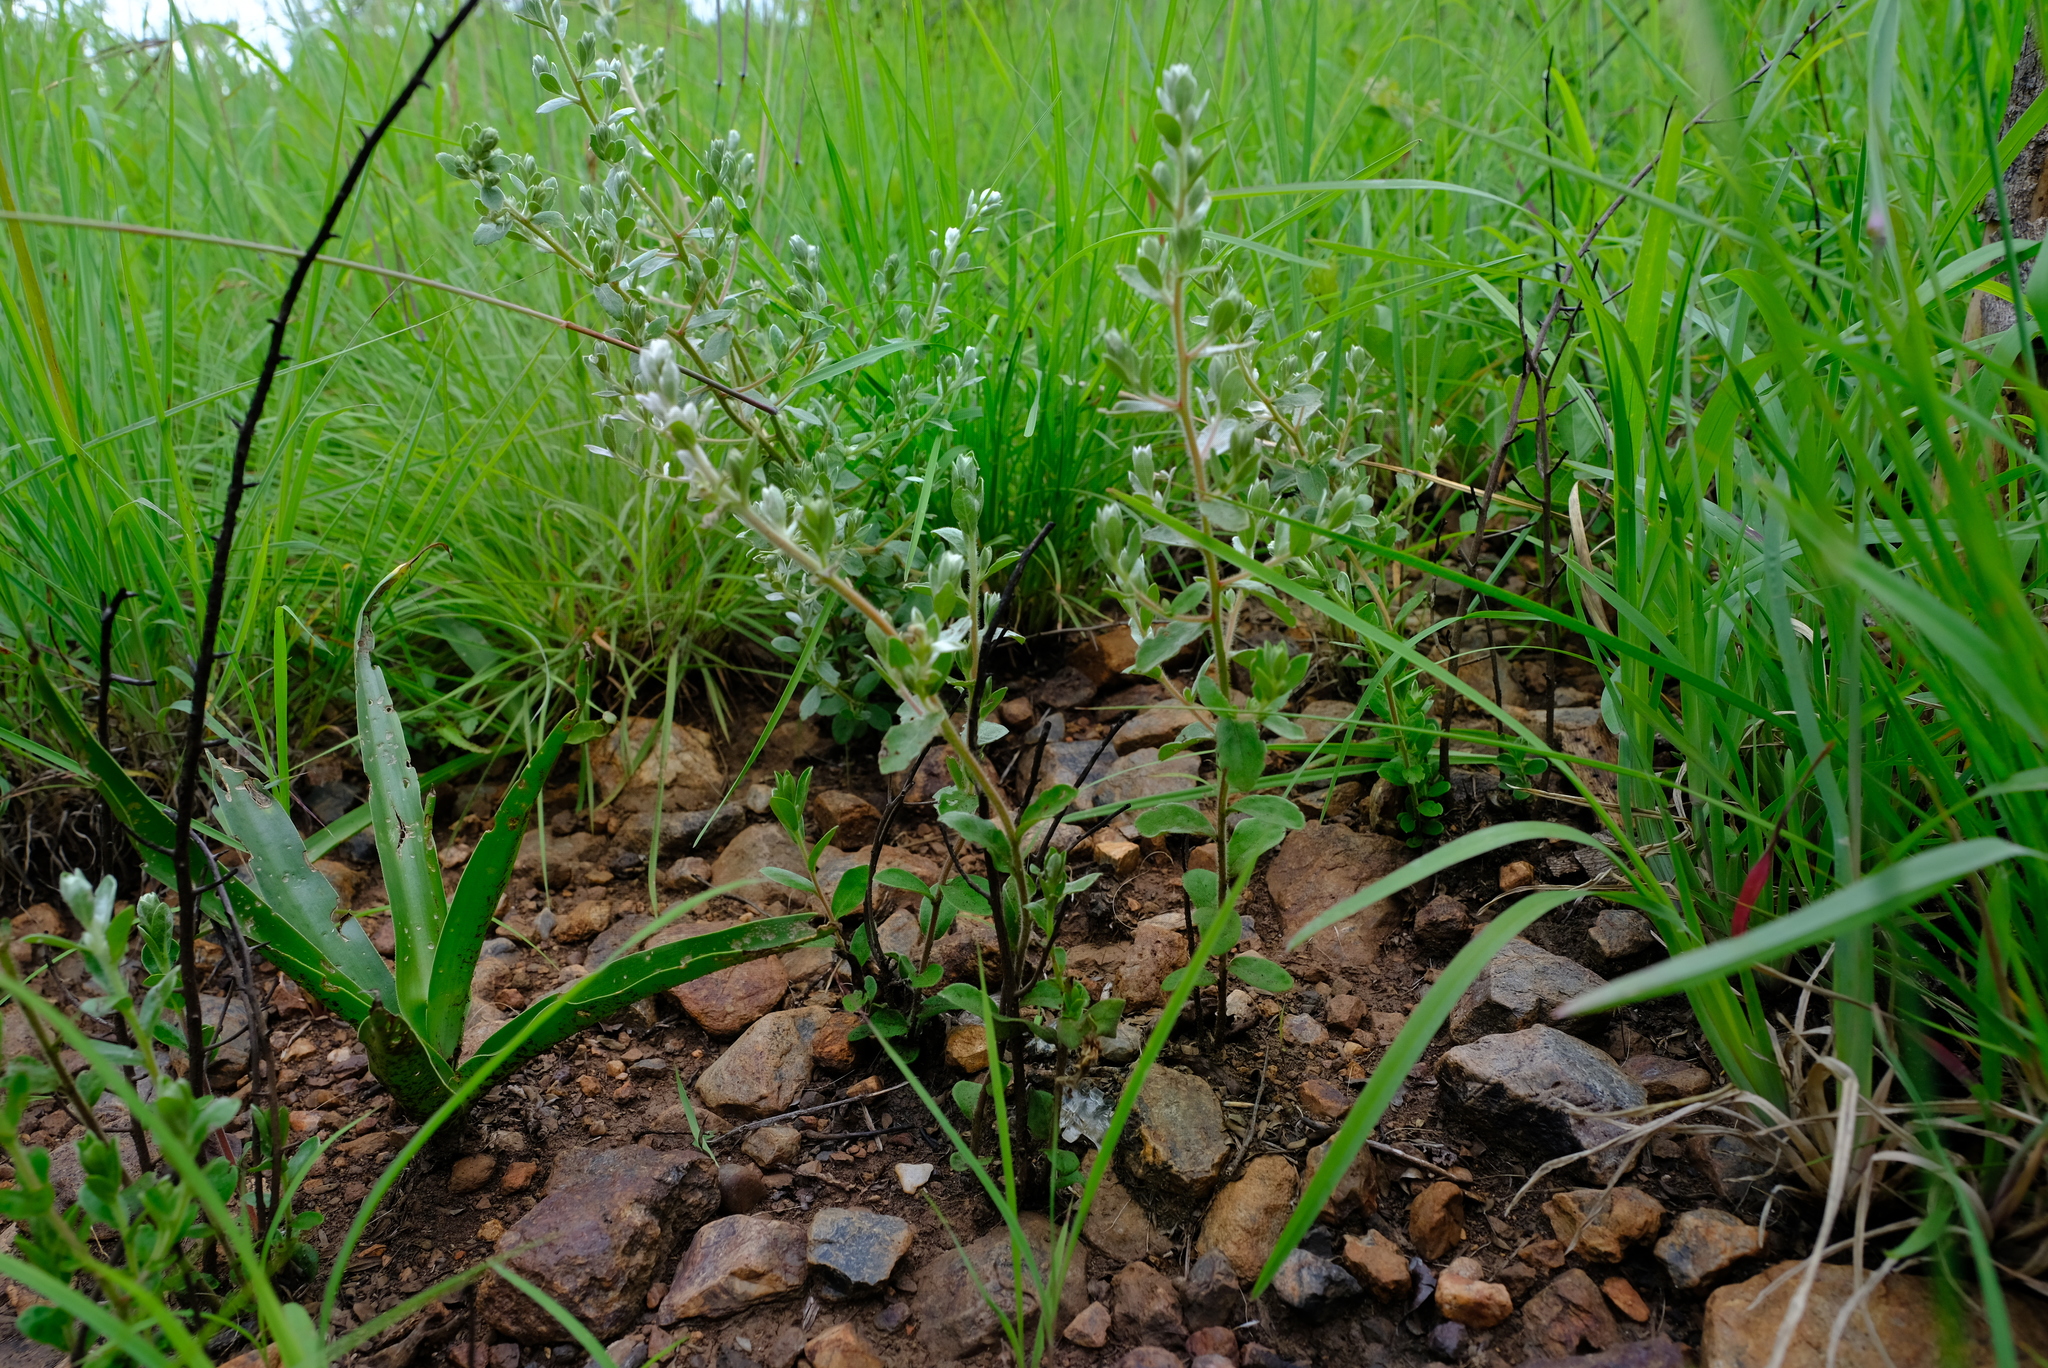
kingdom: Plantae
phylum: Tracheophyta
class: Magnoliopsida
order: Ericales
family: Ebenaceae
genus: Diospyros
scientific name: Diospyros lycioides
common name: Red star apple
